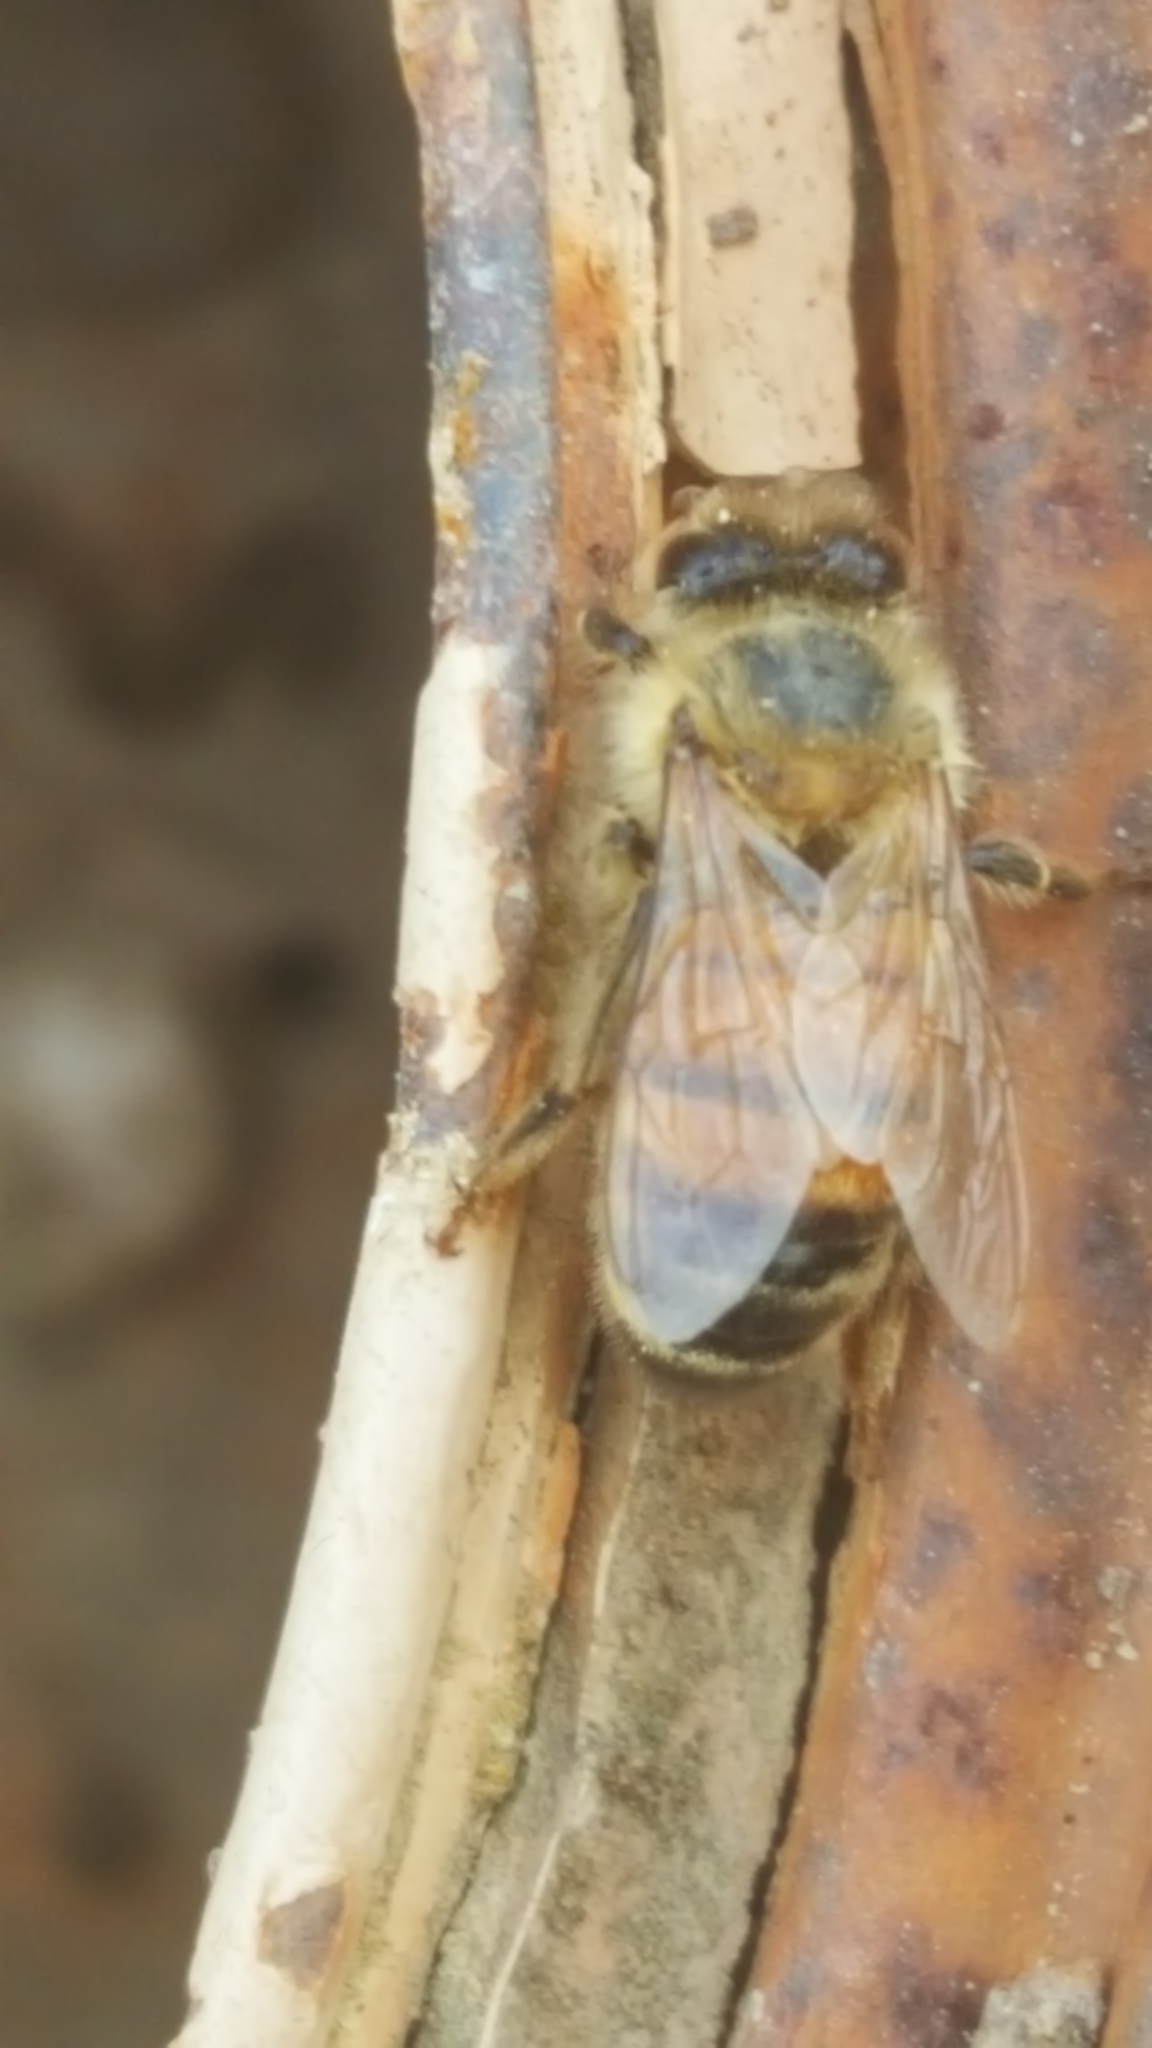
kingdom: Animalia
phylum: Arthropoda
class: Insecta
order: Hymenoptera
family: Apidae
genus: Apis
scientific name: Apis mellifera
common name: Honey bee
